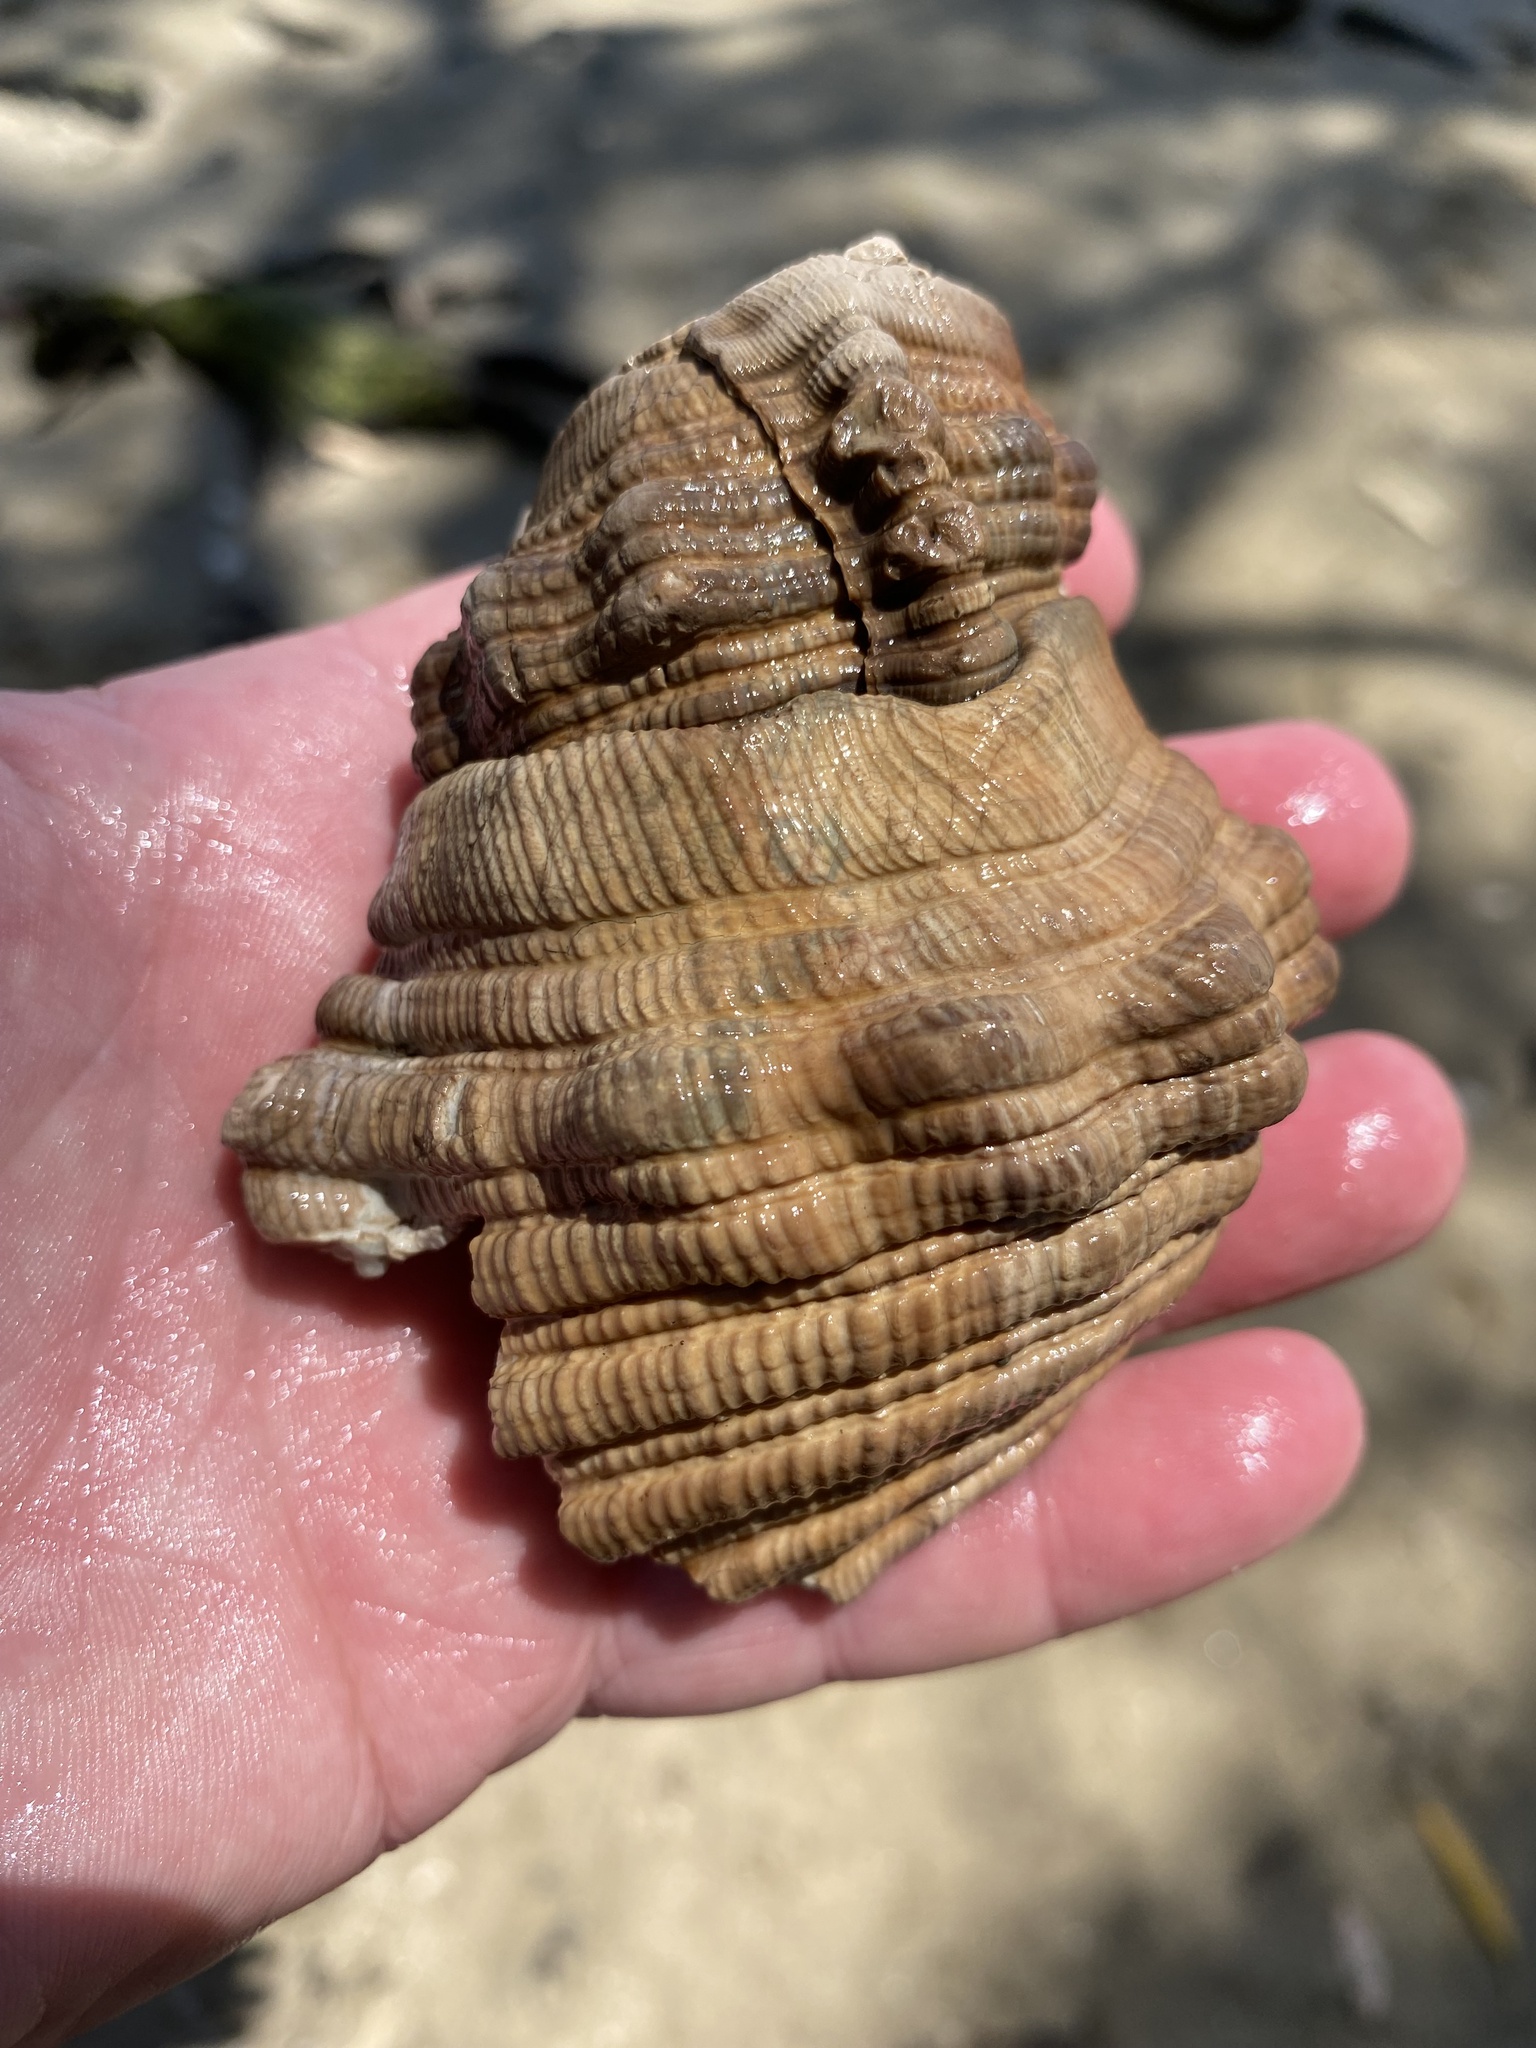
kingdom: Animalia
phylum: Mollusca
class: Gastropoda
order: Littorinimorpha
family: Cymatiidae
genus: Cabestana
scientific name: Cabestana spengleri
